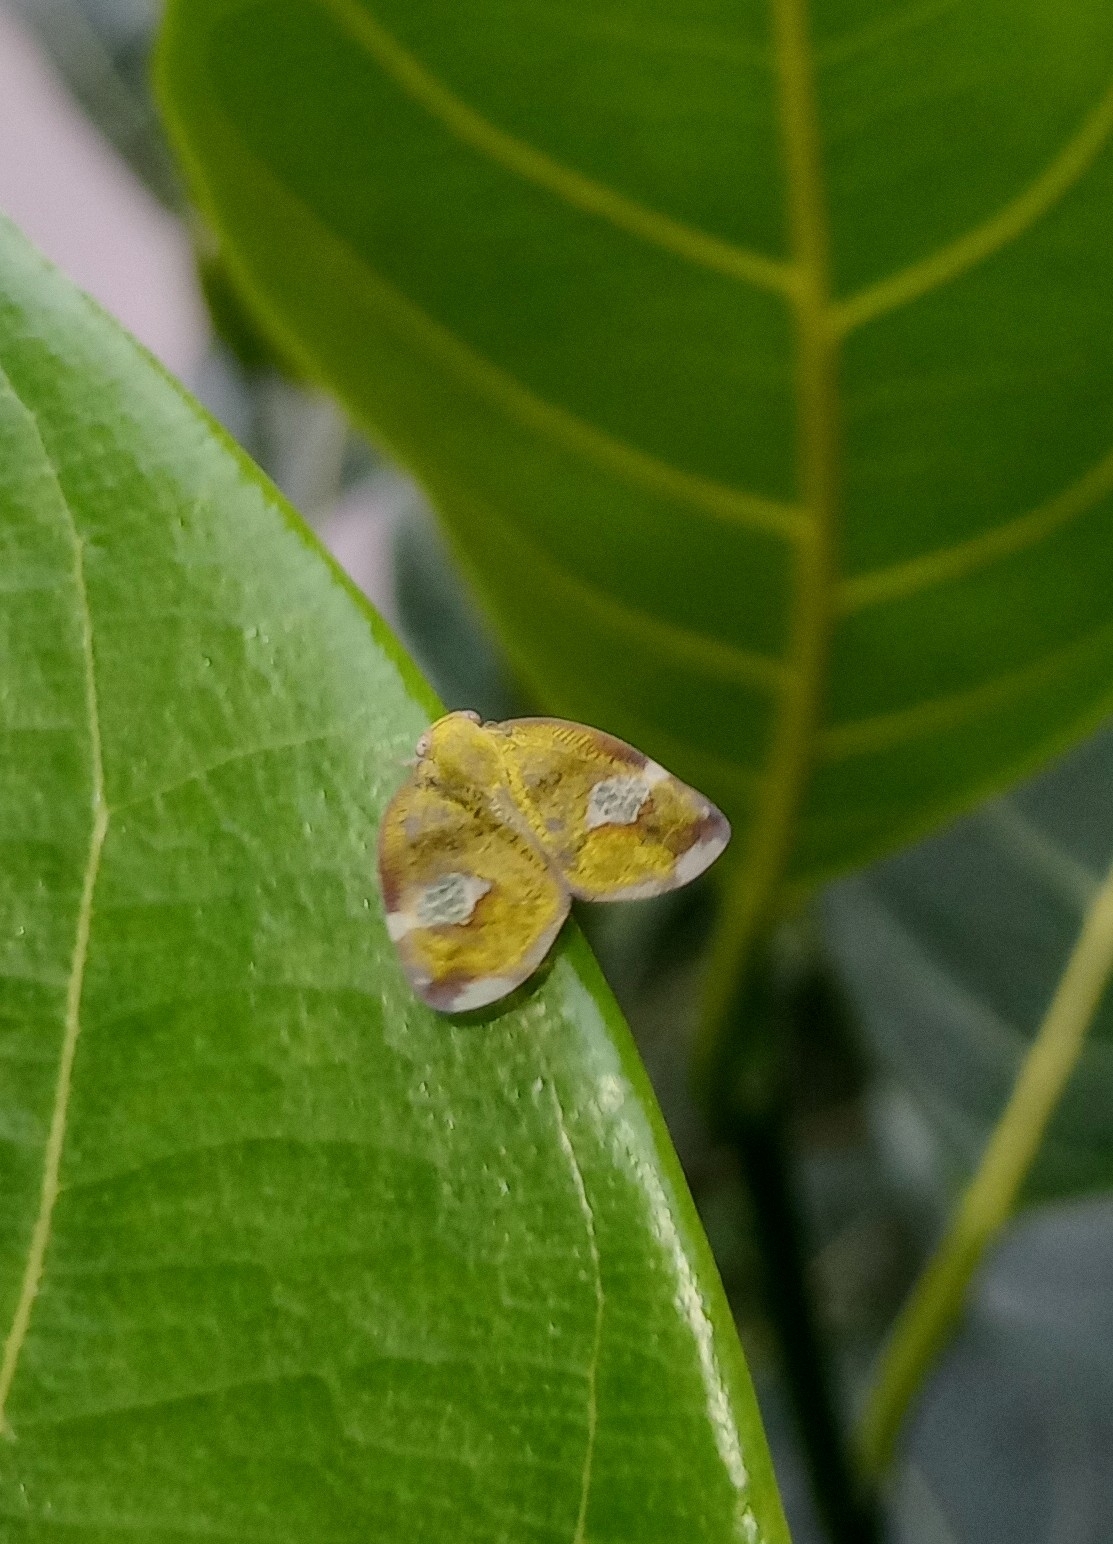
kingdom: Animalia
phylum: Arthropoda
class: Insecta
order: Hemiptera
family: Ricaniidae
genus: Ricania
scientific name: Ricania fenestrata
